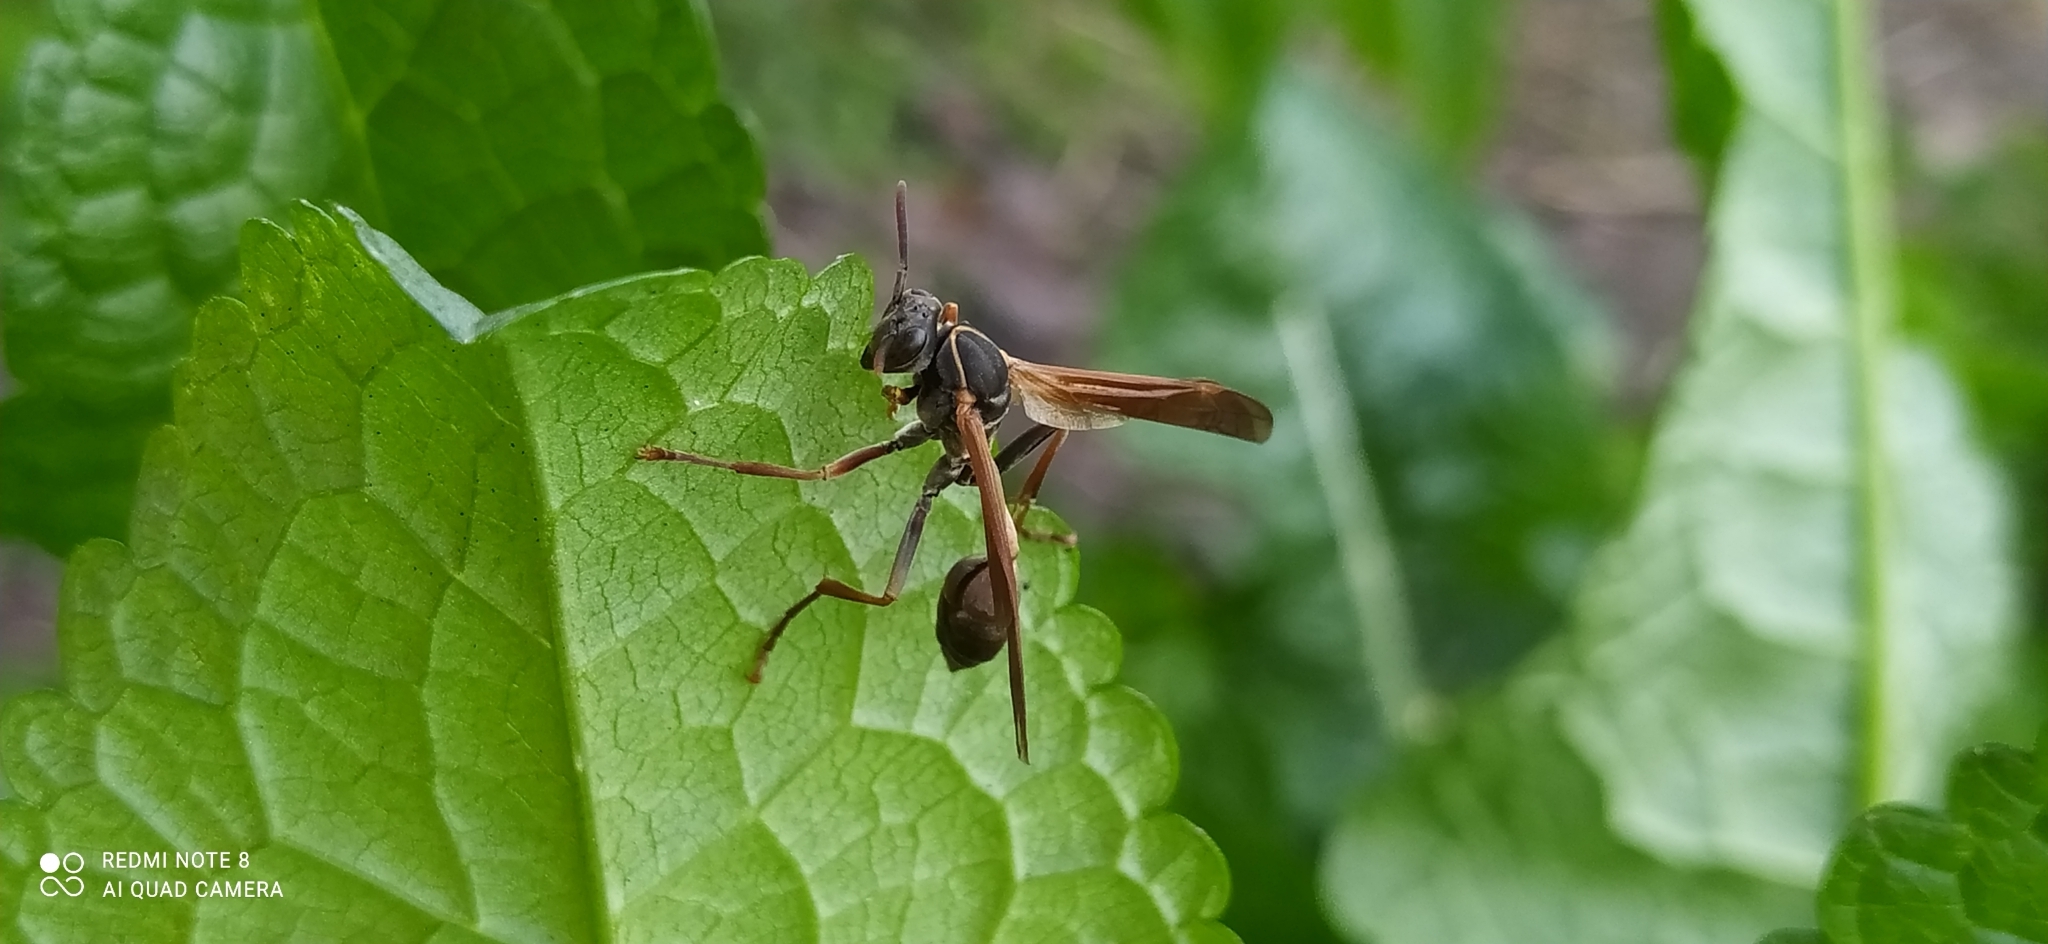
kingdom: Animalia
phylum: Arthropoda
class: Insecta
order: Hymenoptera
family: Vespidae
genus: Mischocyttarus
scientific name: Mischocyttarus drewseni
